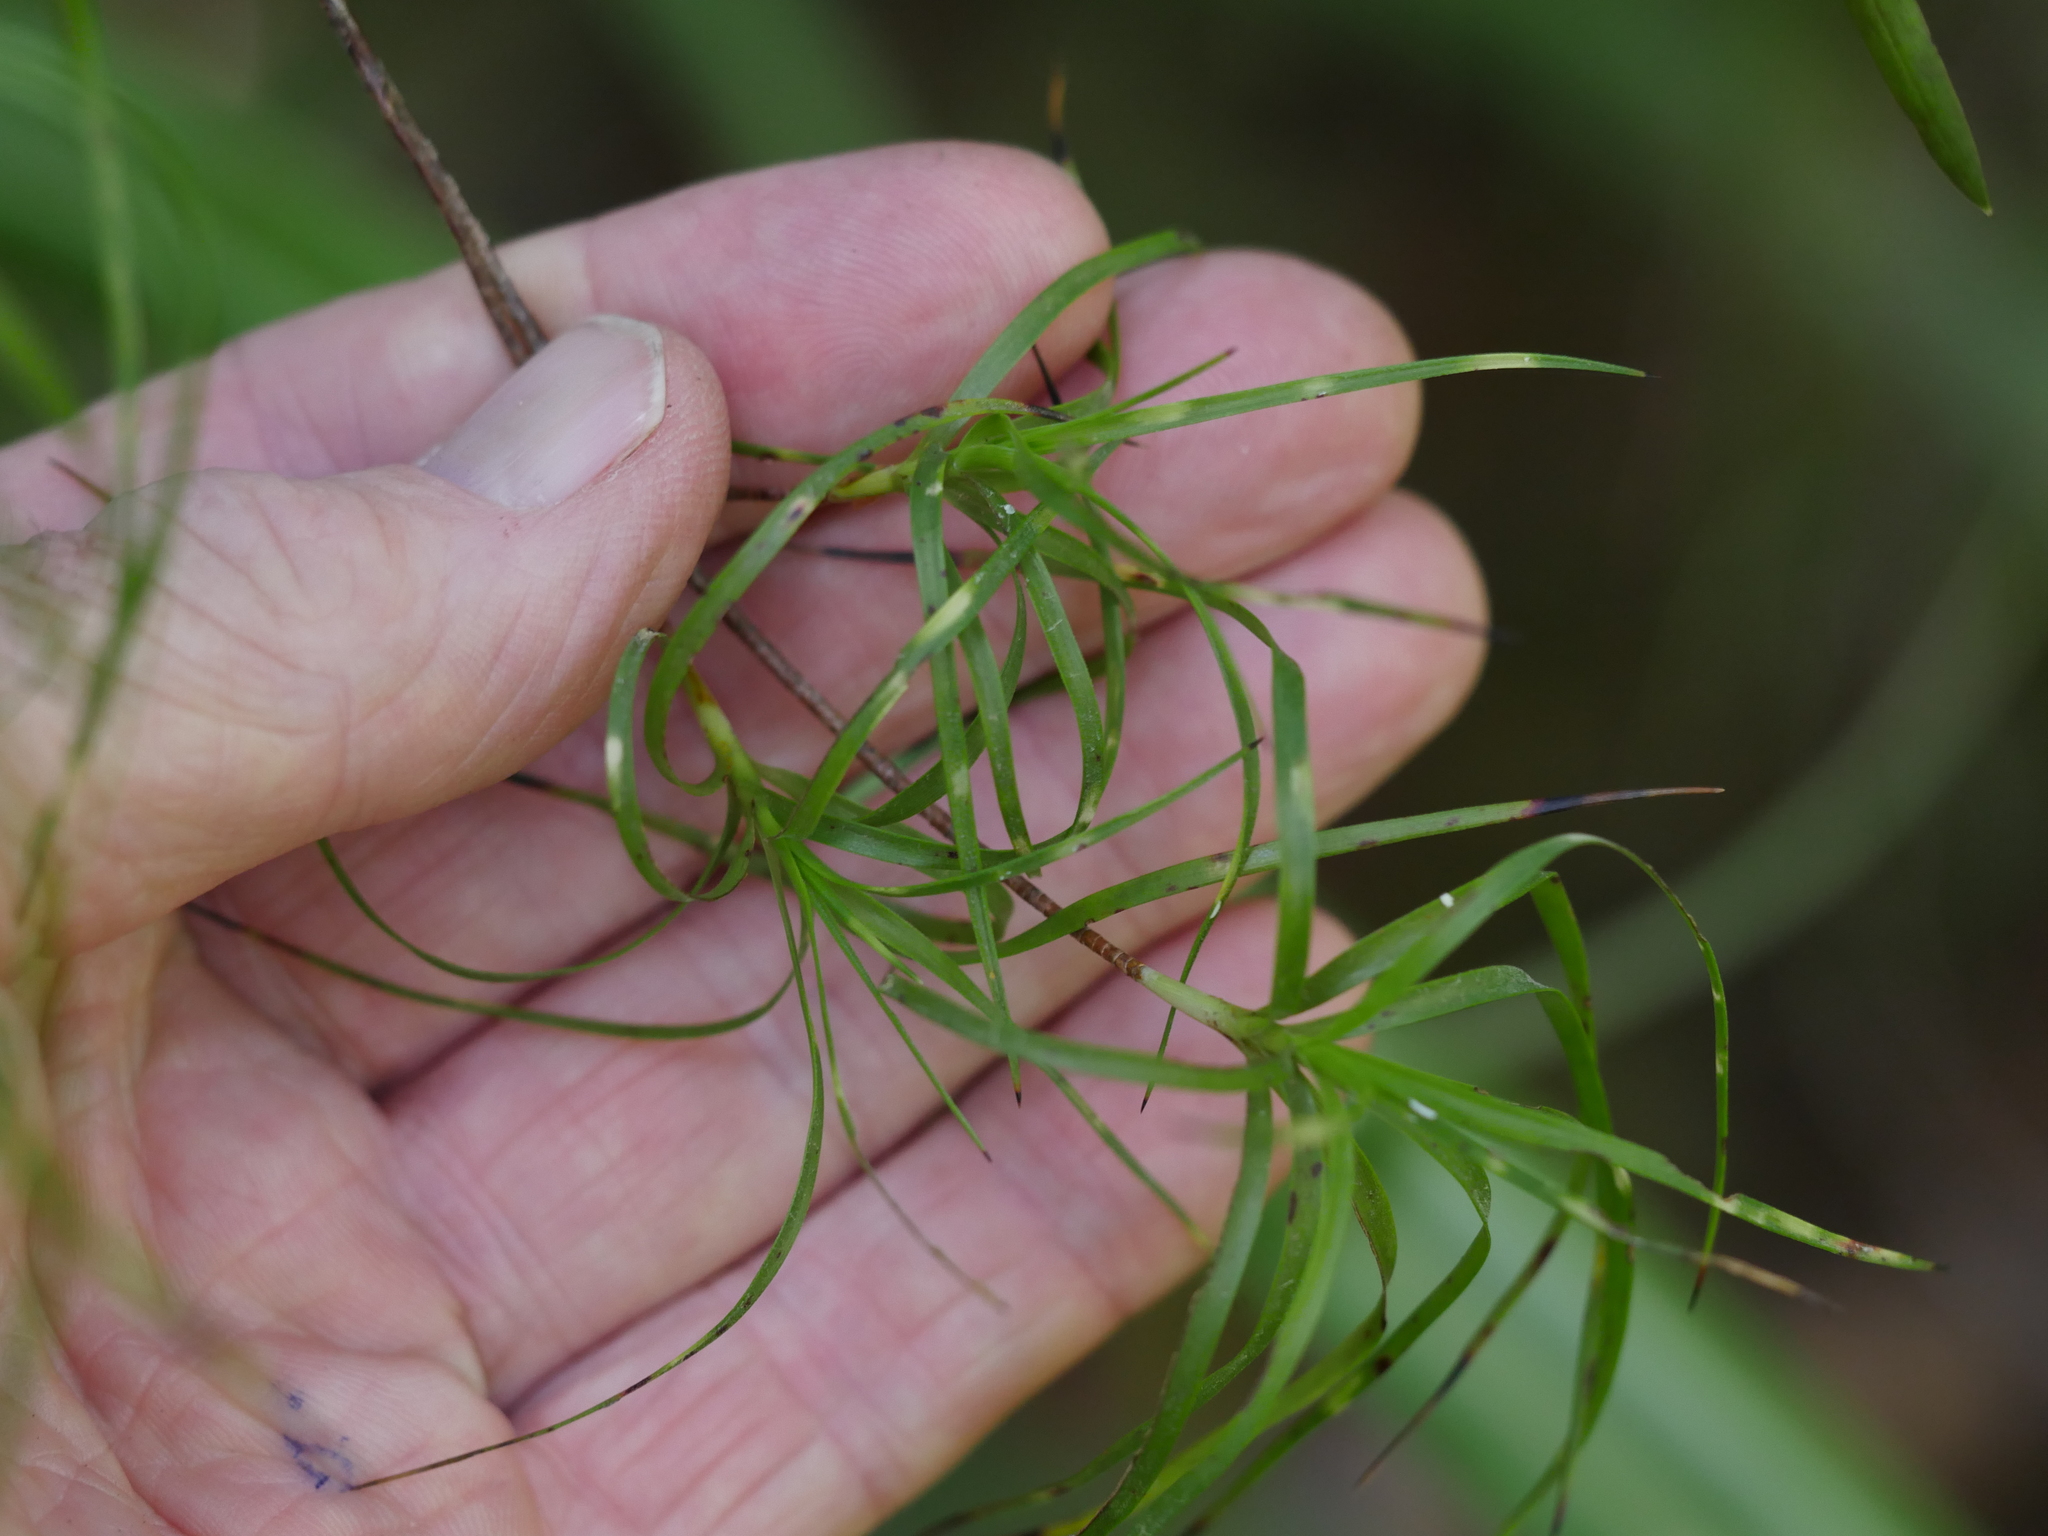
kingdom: Plantae
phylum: Tracheophyta
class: Magnoliopsida
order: Ericales
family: Ericaceae
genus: Dracophyllum
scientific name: Dracophyllum sinclairii
